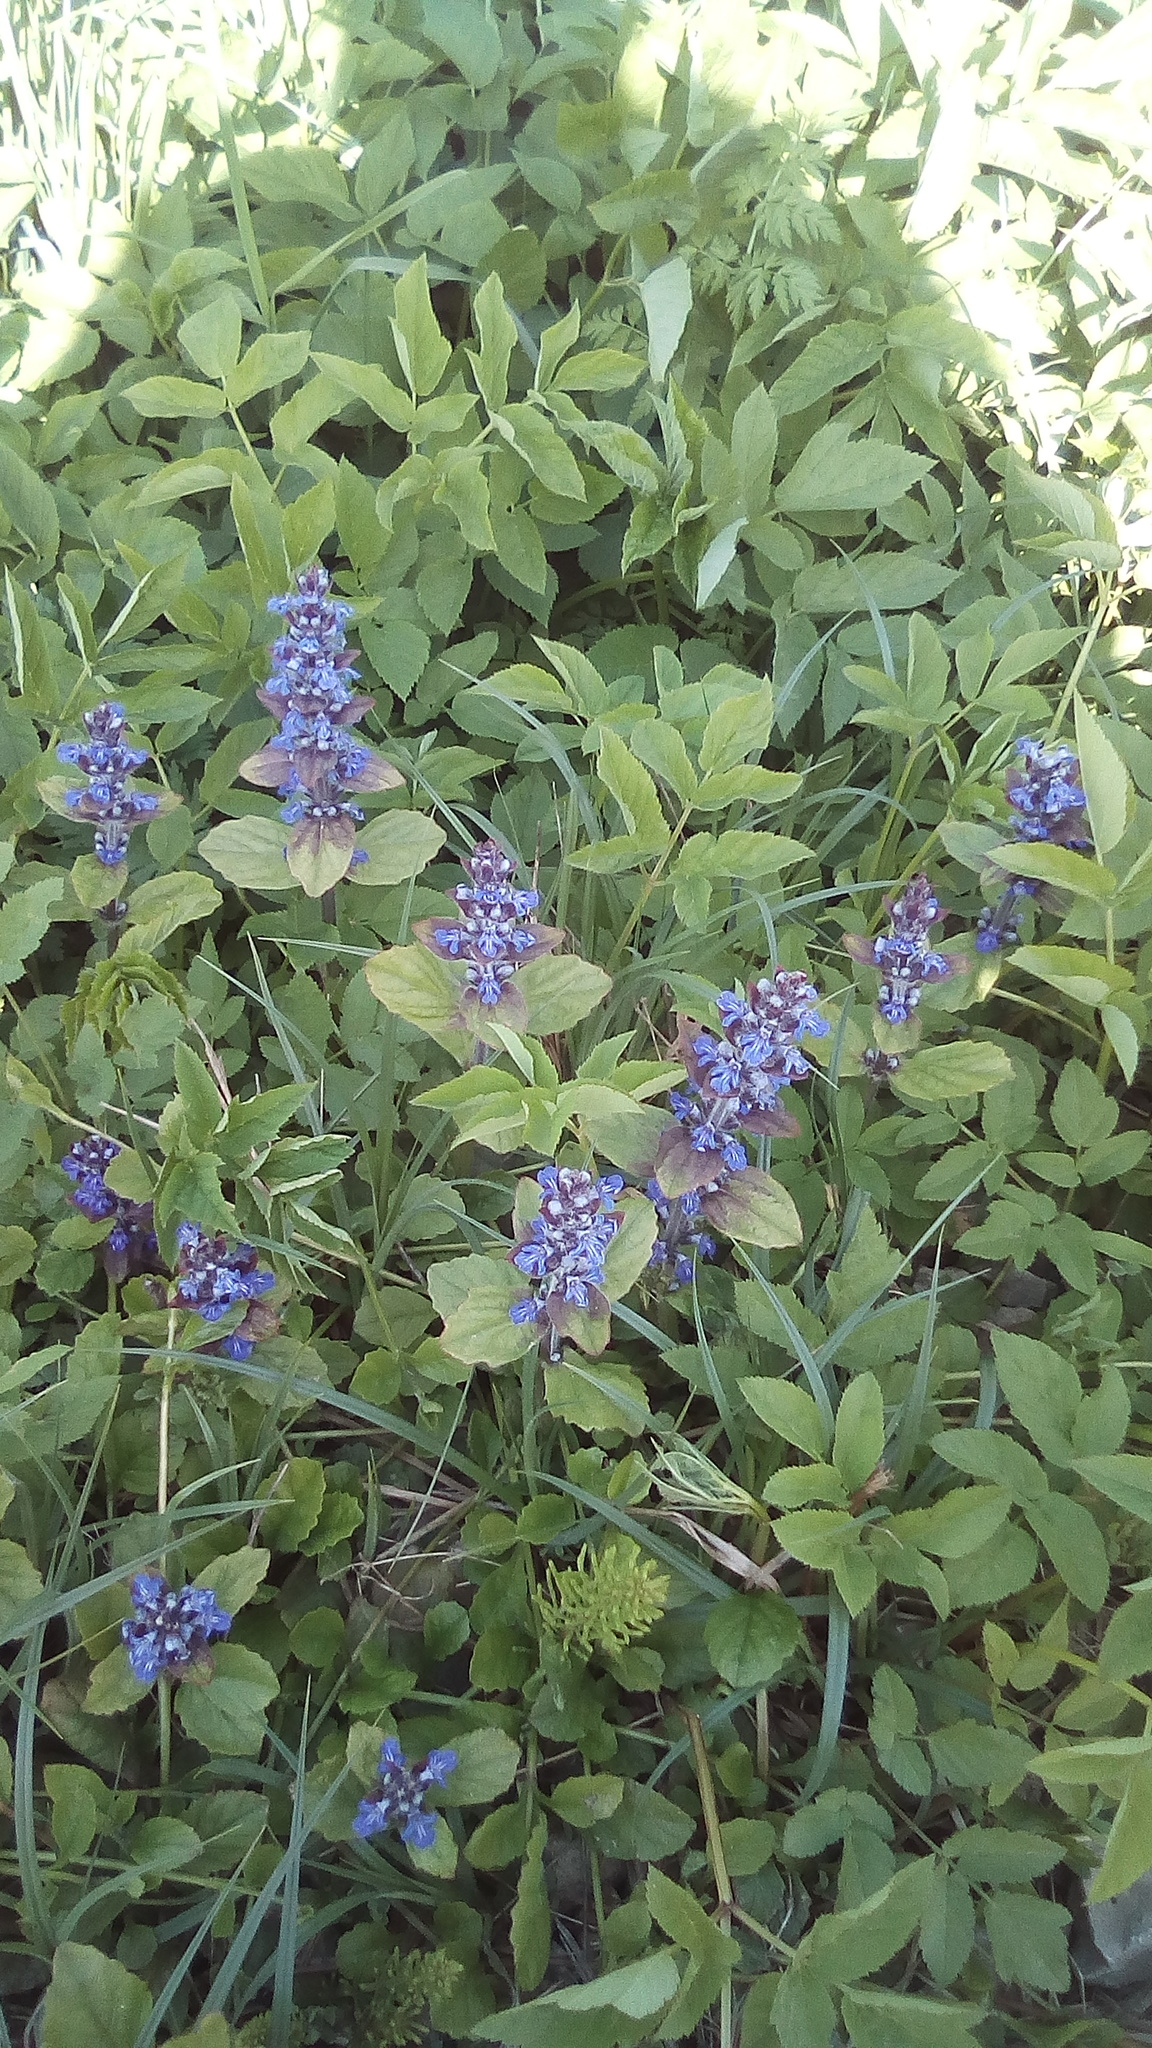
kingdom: Plantae
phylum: Tracheophyta
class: Magnoliopsida
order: Lamiales
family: Lamiaceae
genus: Ajuga
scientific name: Ajuga reptans
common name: Bugle
